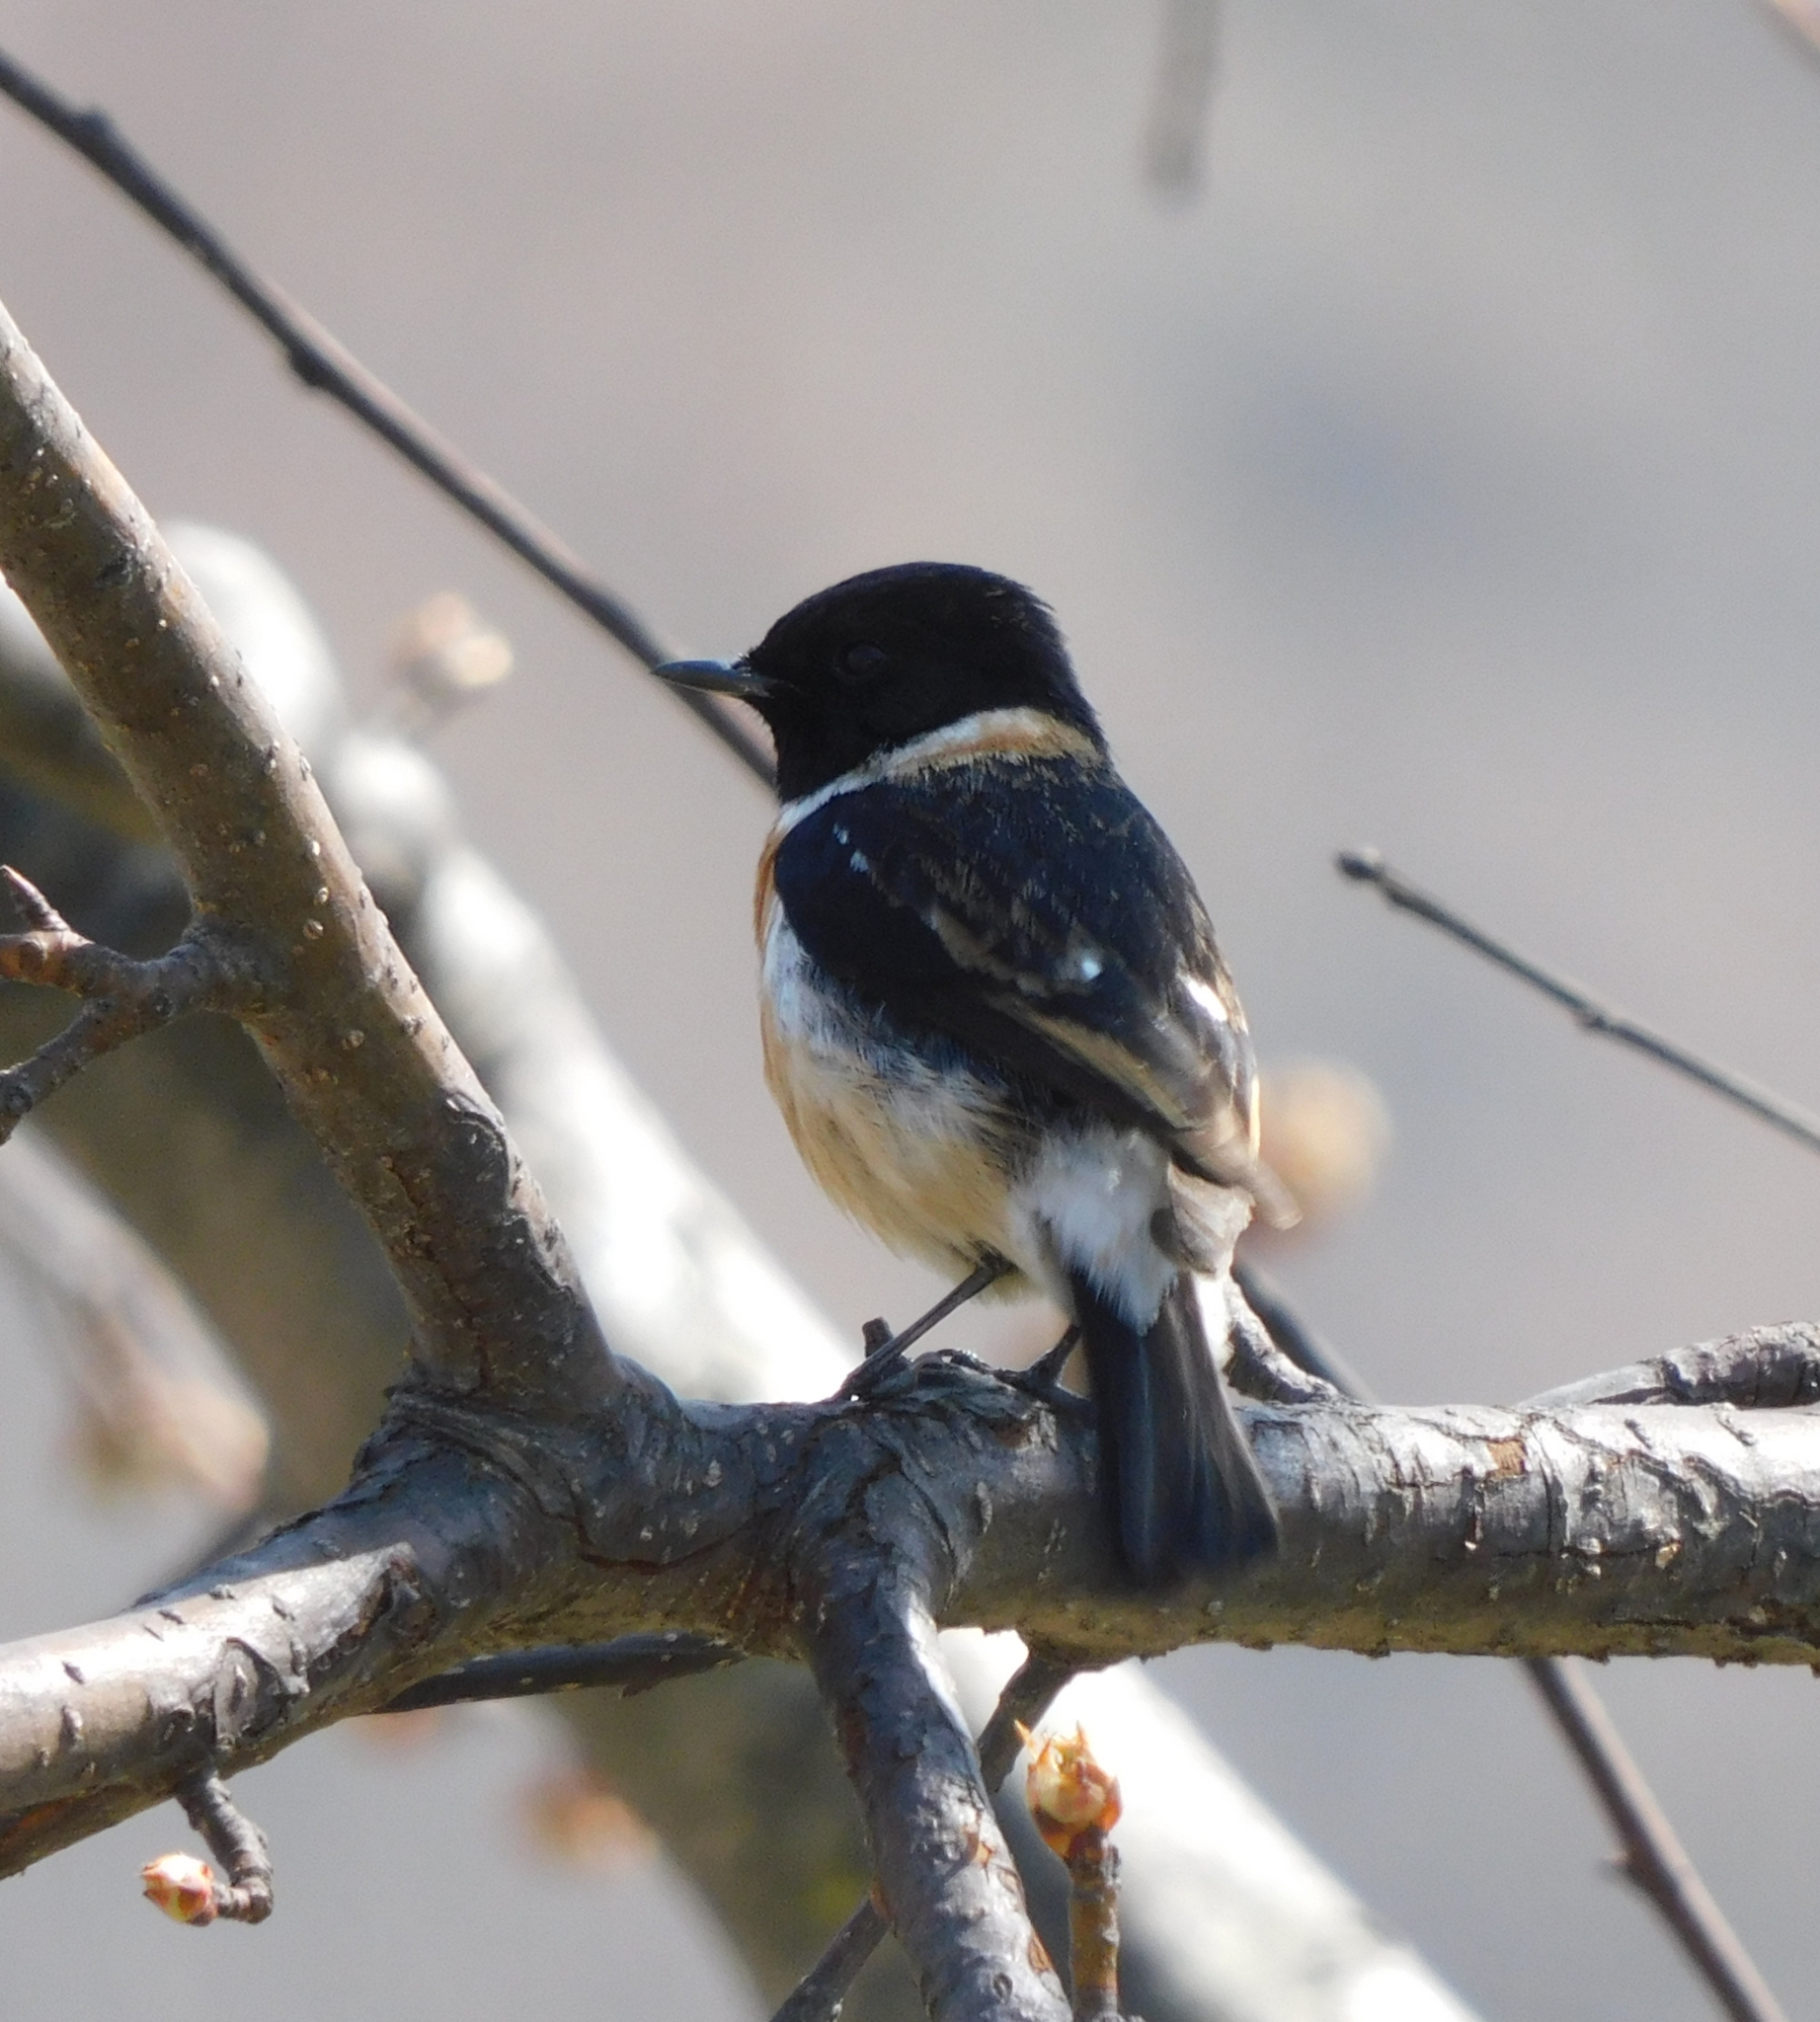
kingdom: Animalia
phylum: Chordata
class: Aves
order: Passeriformes
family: Muscicapidae
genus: Saxicola
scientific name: Saxicola maurus
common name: Siberian stonechat
